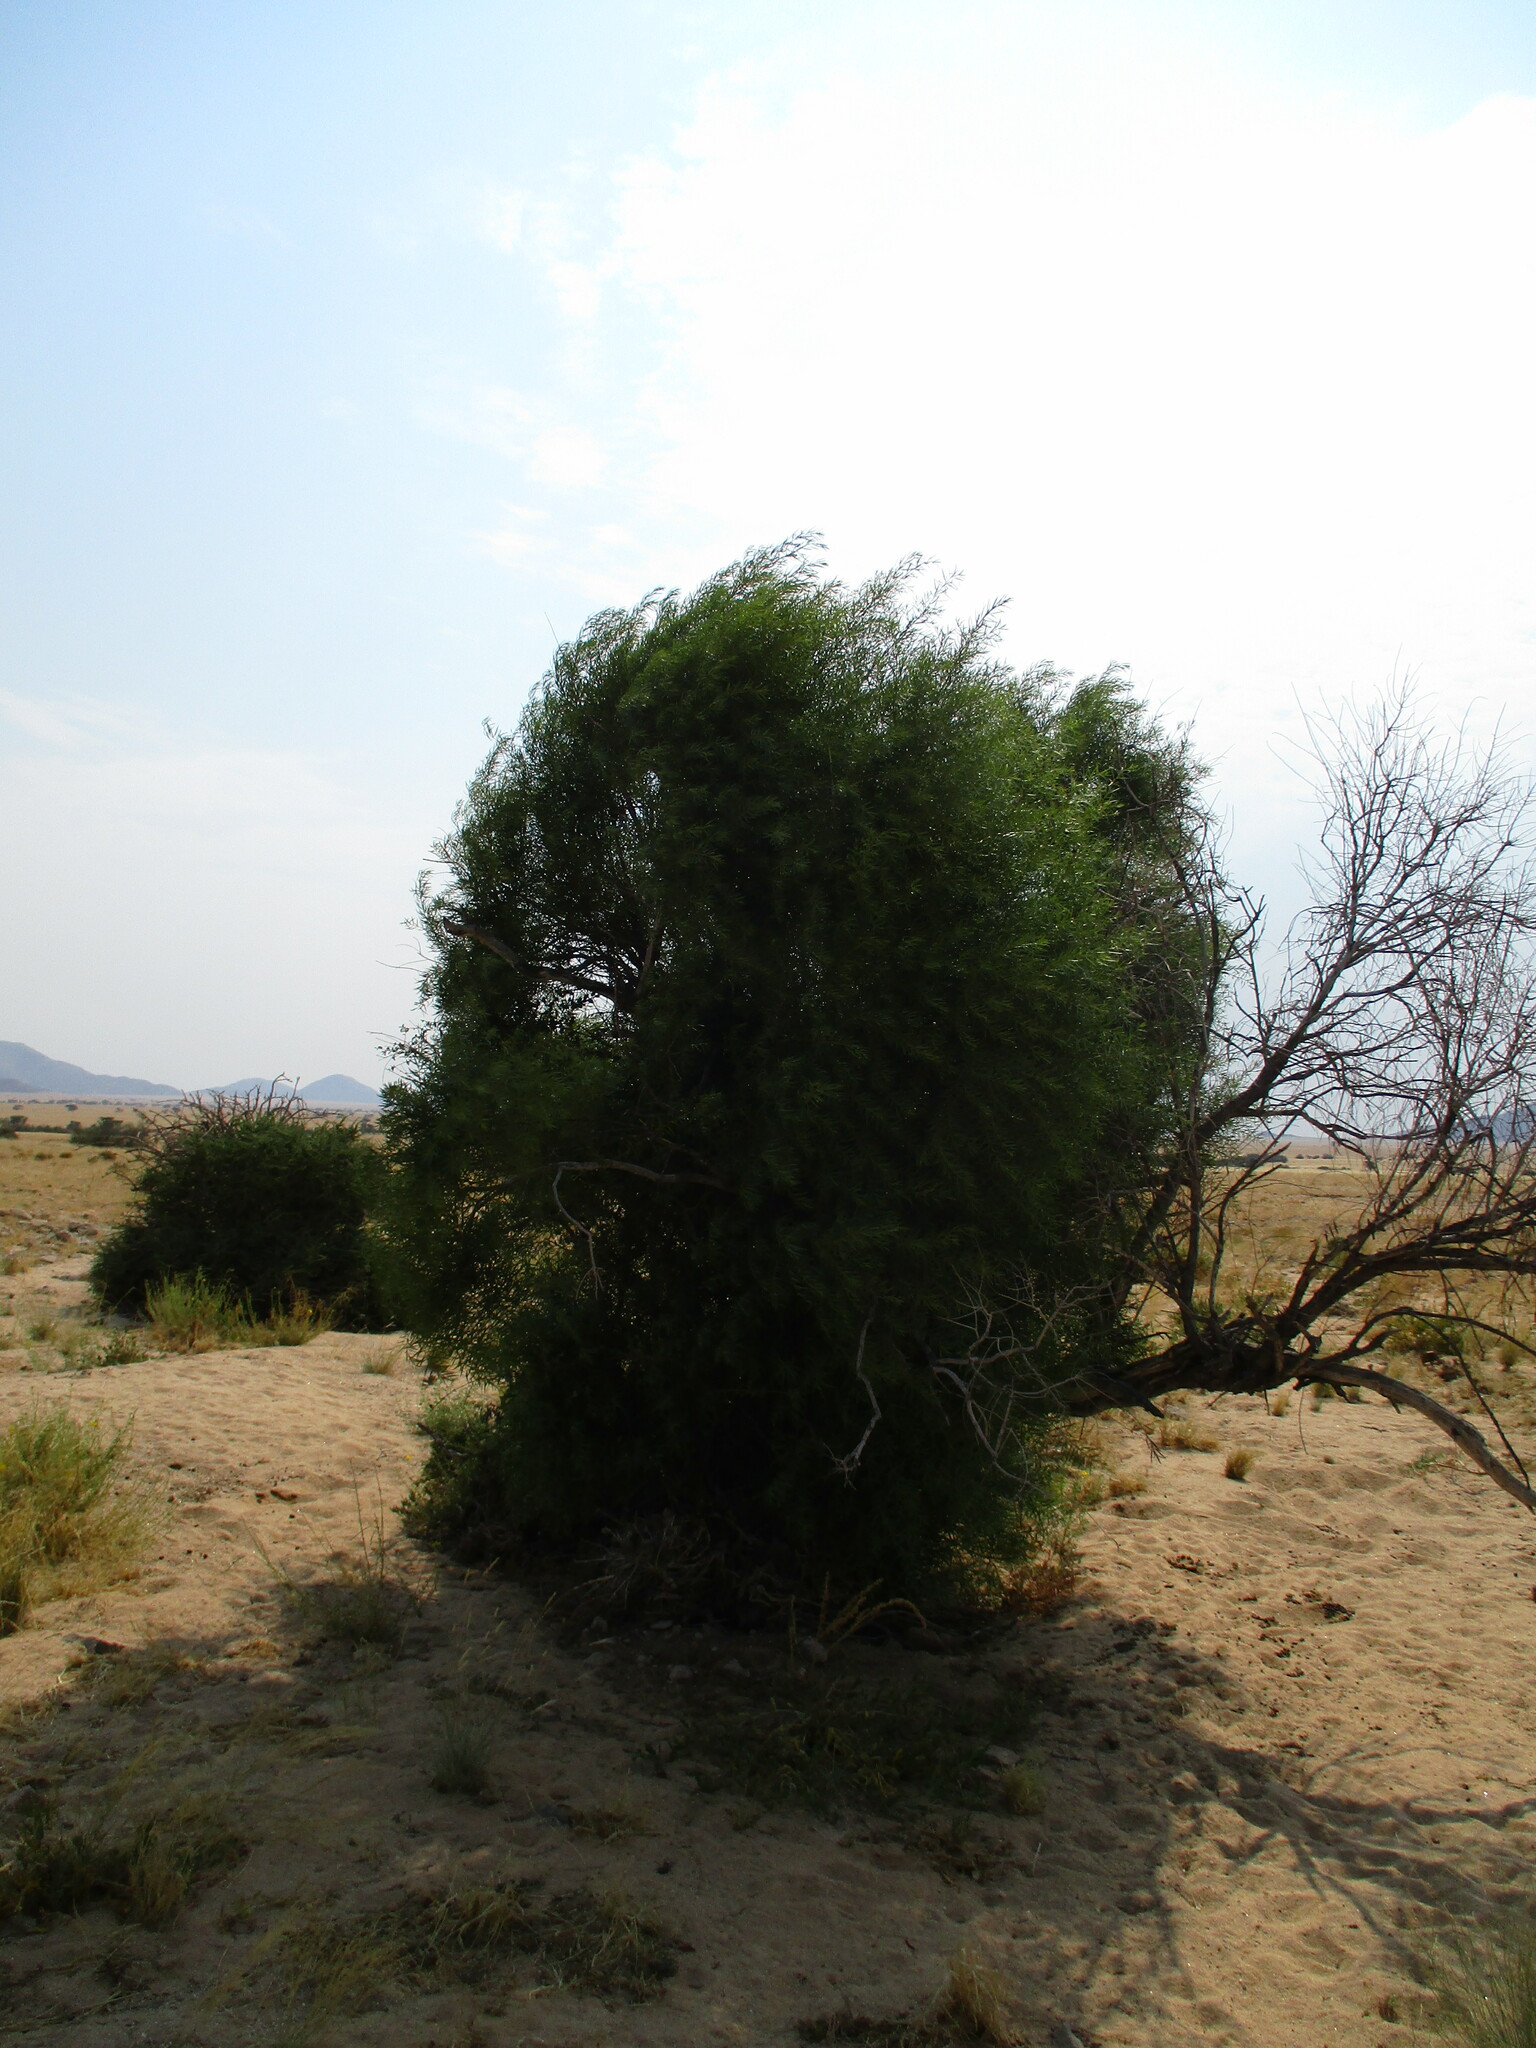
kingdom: Plantae
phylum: Tracheophyta
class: Magnoliopsida
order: Ericales
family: Ebenaceae
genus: Euclea
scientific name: Euclea pseudebenus
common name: Black ebony
